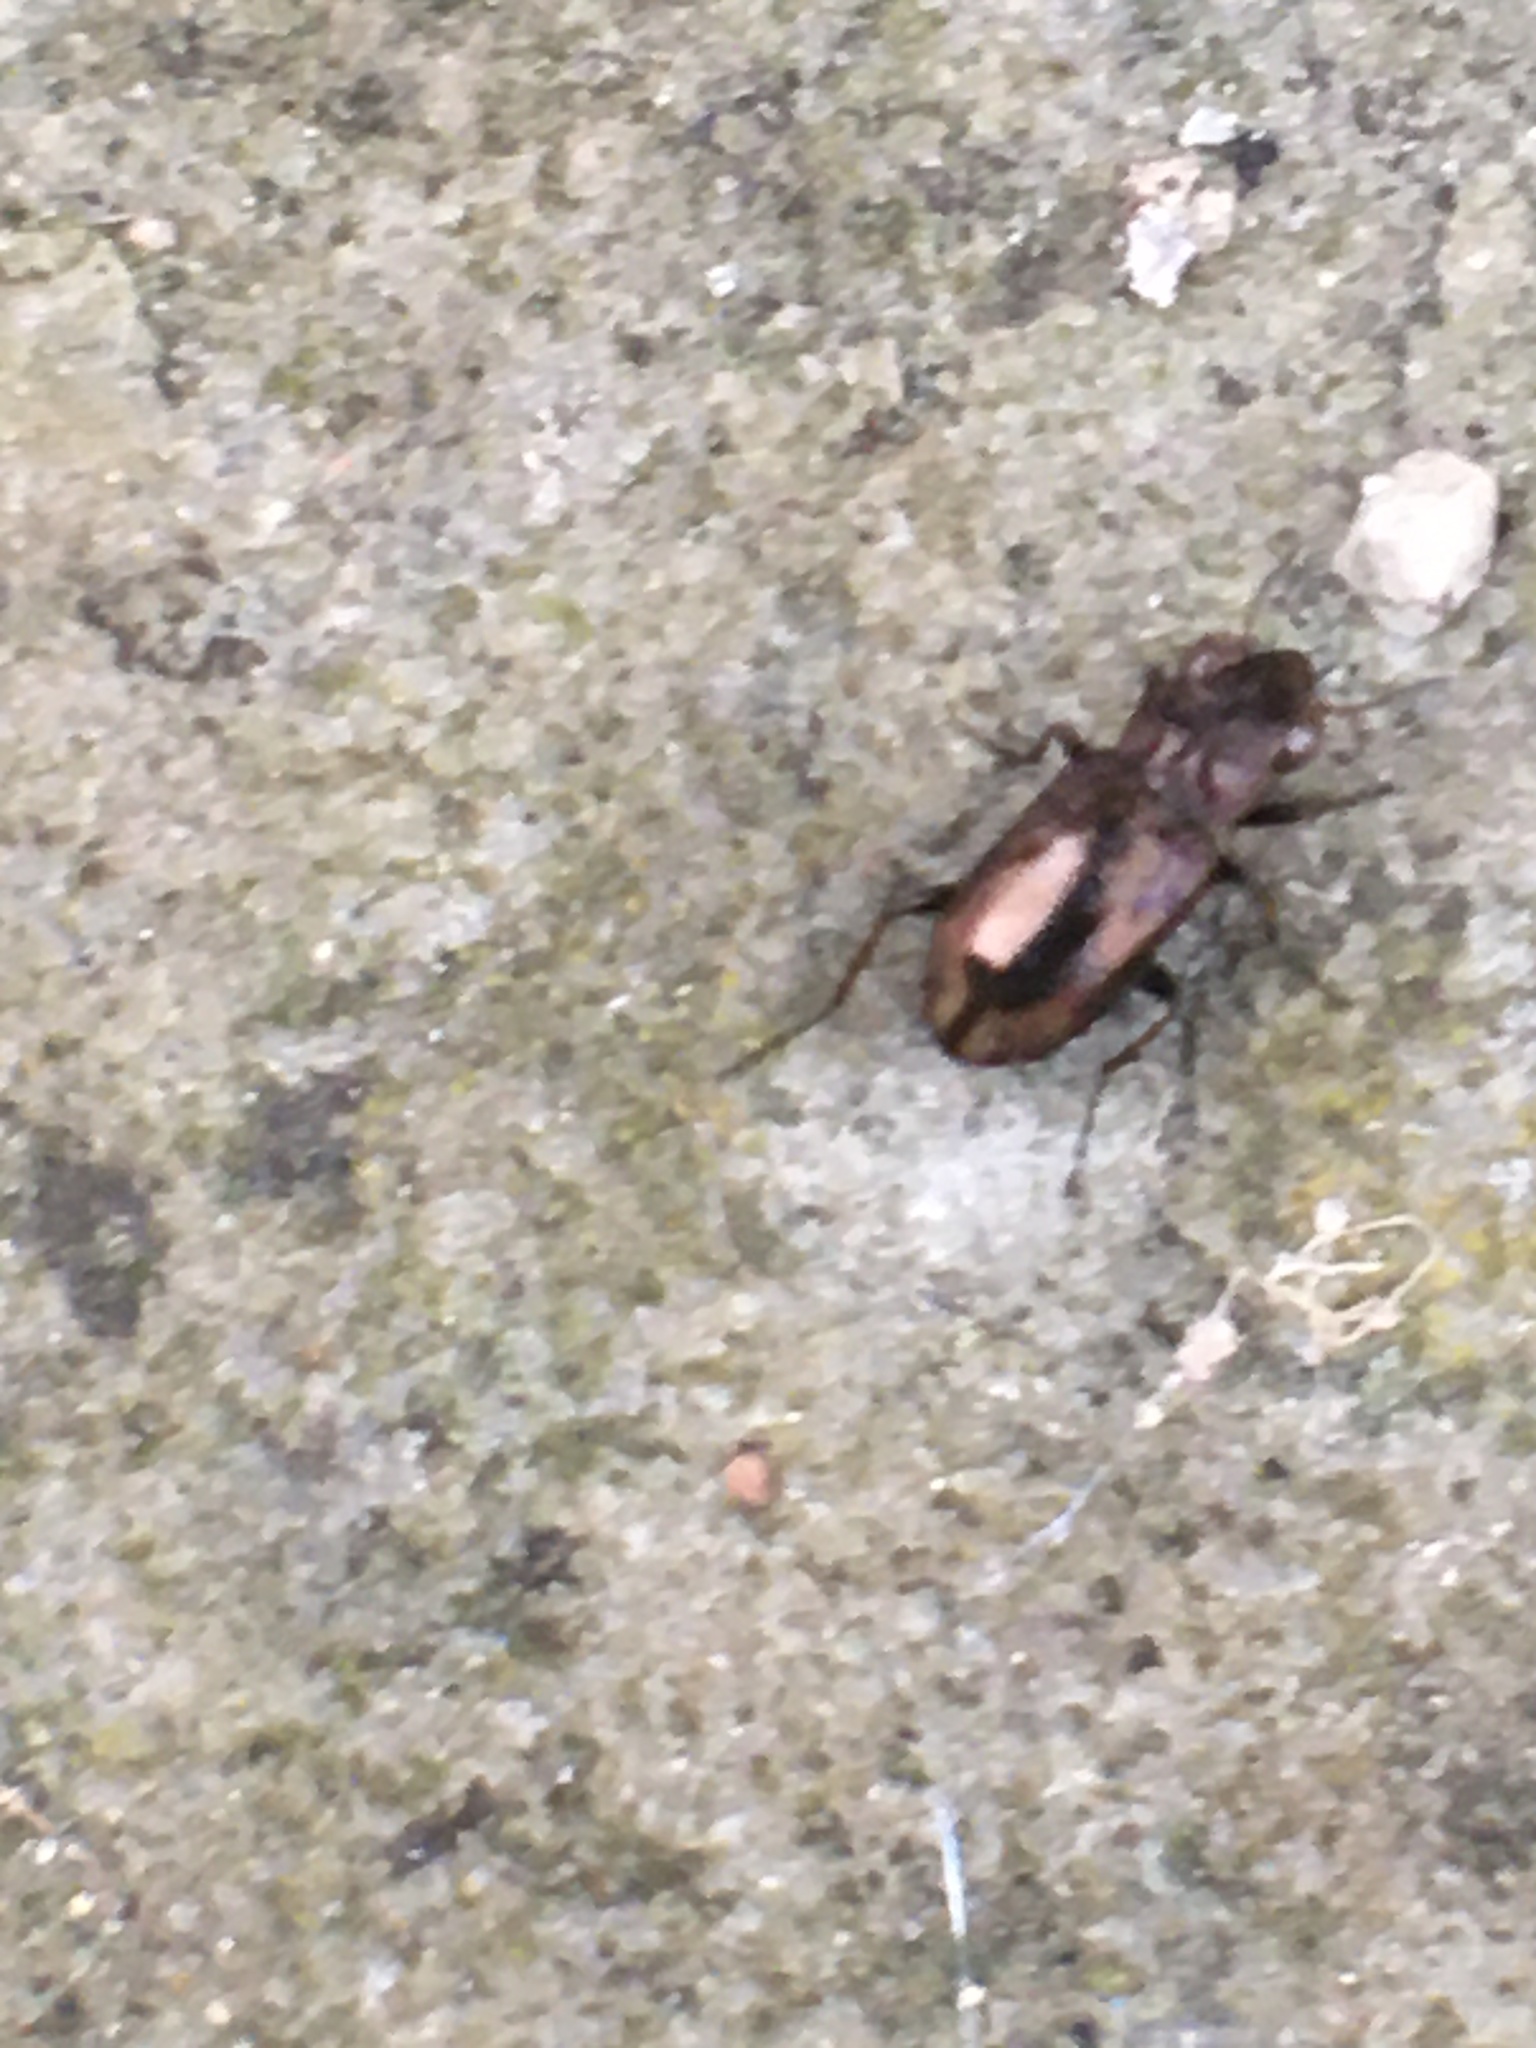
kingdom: Animalia
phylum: Arthropoda
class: Insecta
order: Coleoptera
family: Carabidae
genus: Notiophilus
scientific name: Notiophilus
